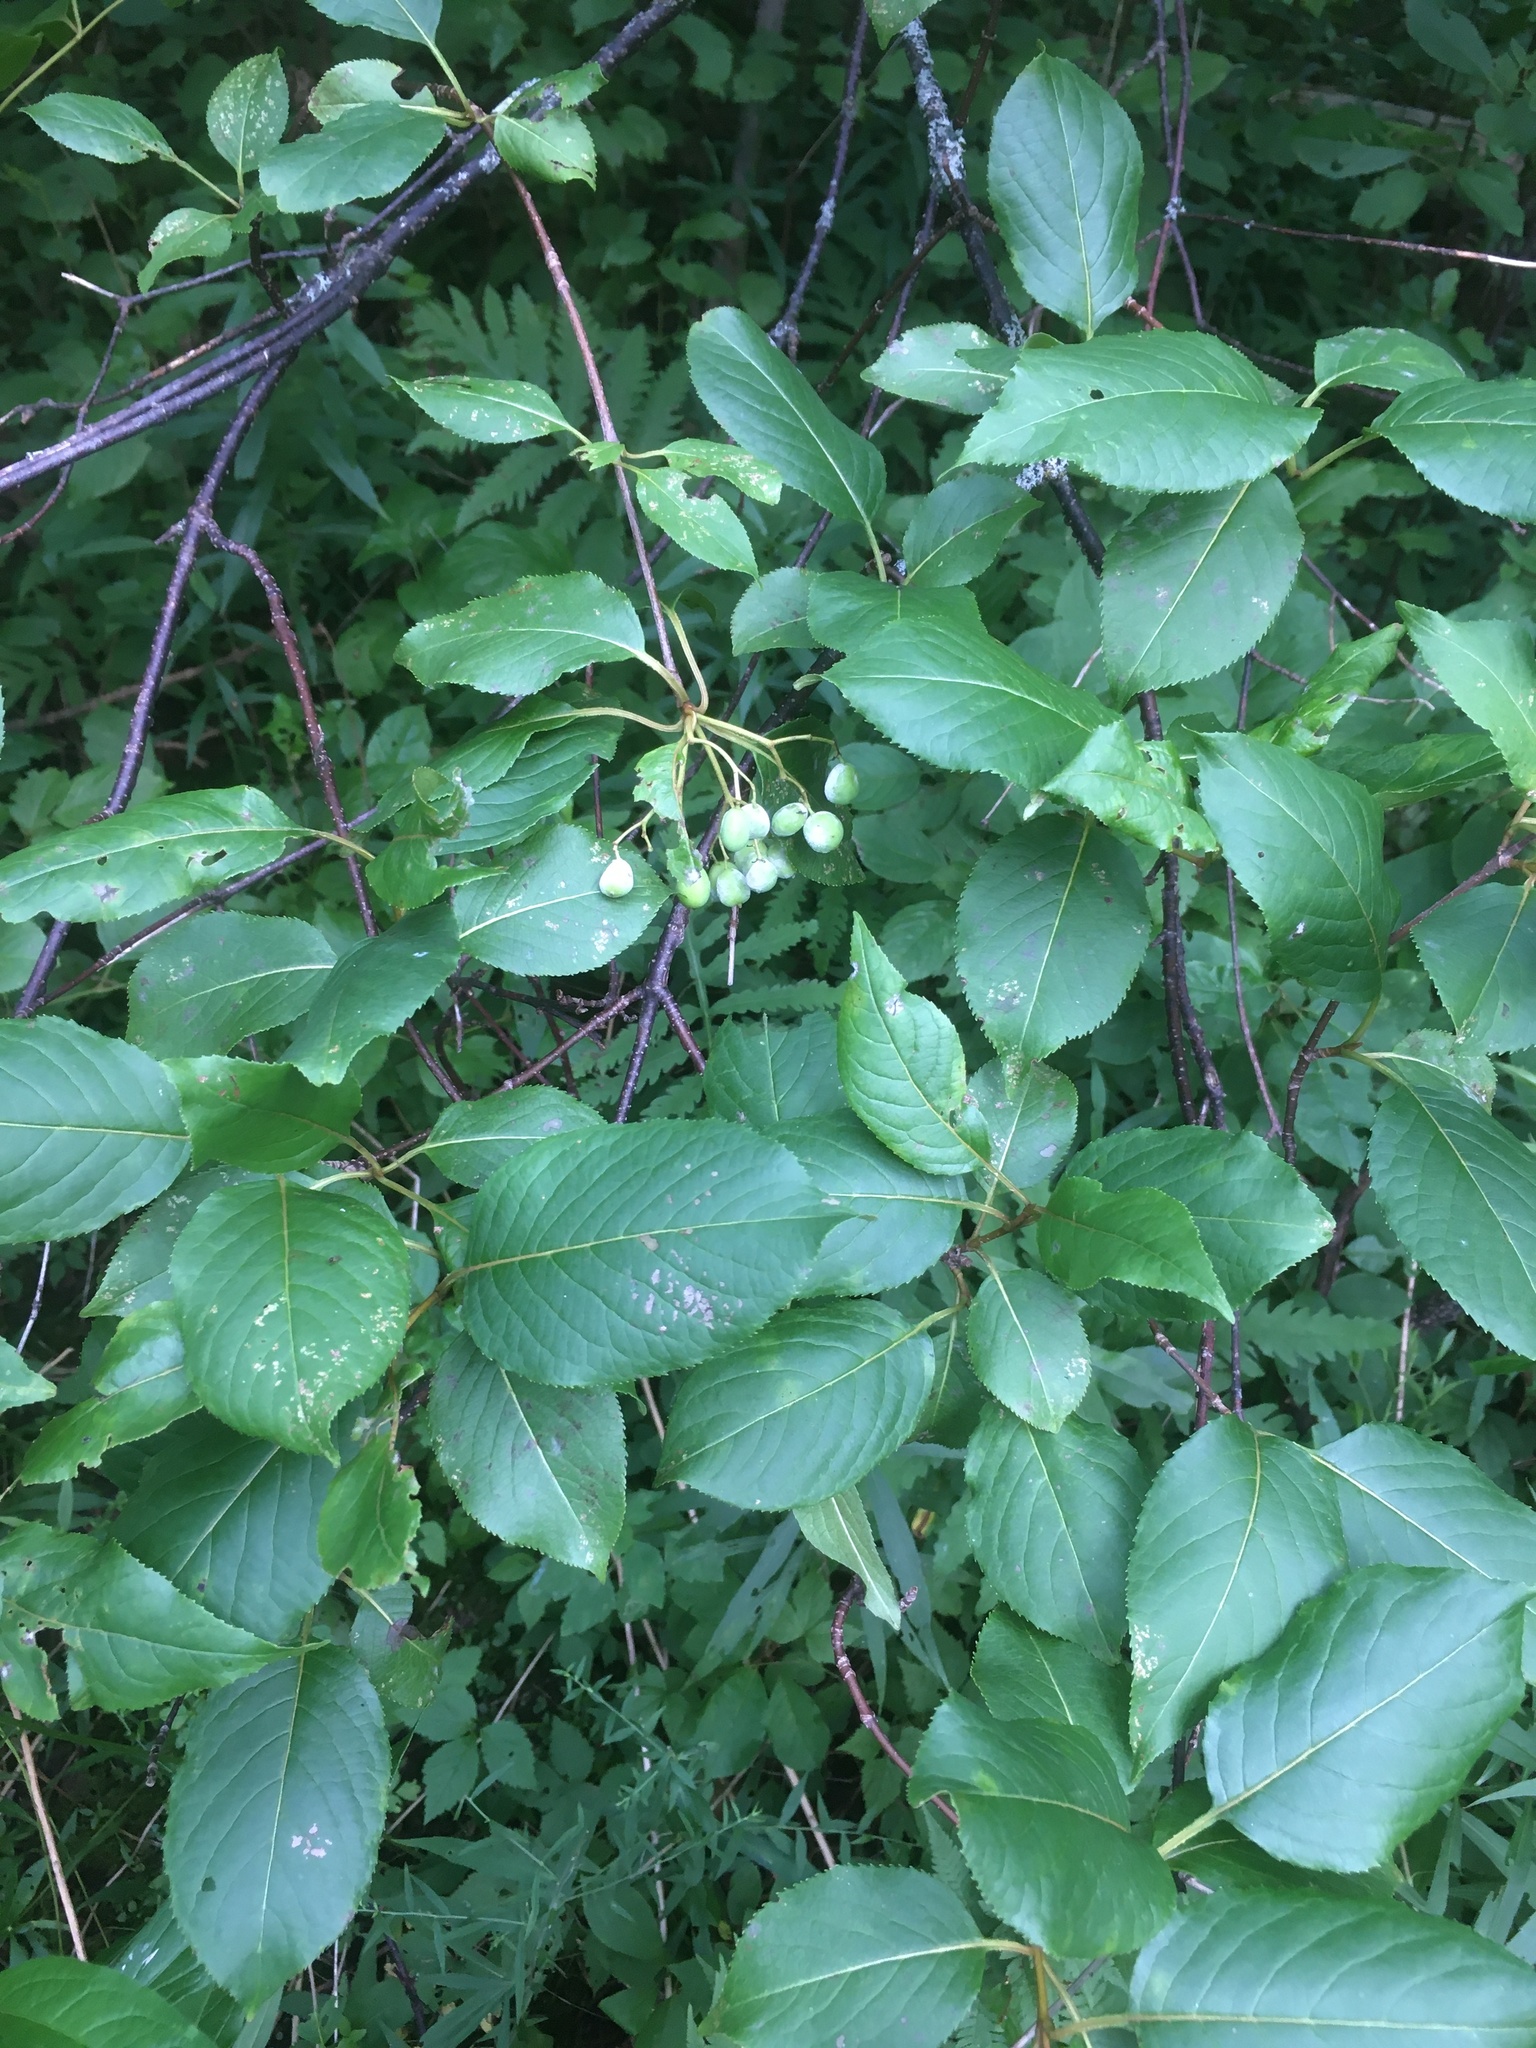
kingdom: Plantae
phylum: Tracheophyta
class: Magnoliopsida
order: Dipsacales
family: Viburnaceae
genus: Viburnum
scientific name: Viburnum lentago
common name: Black haw
